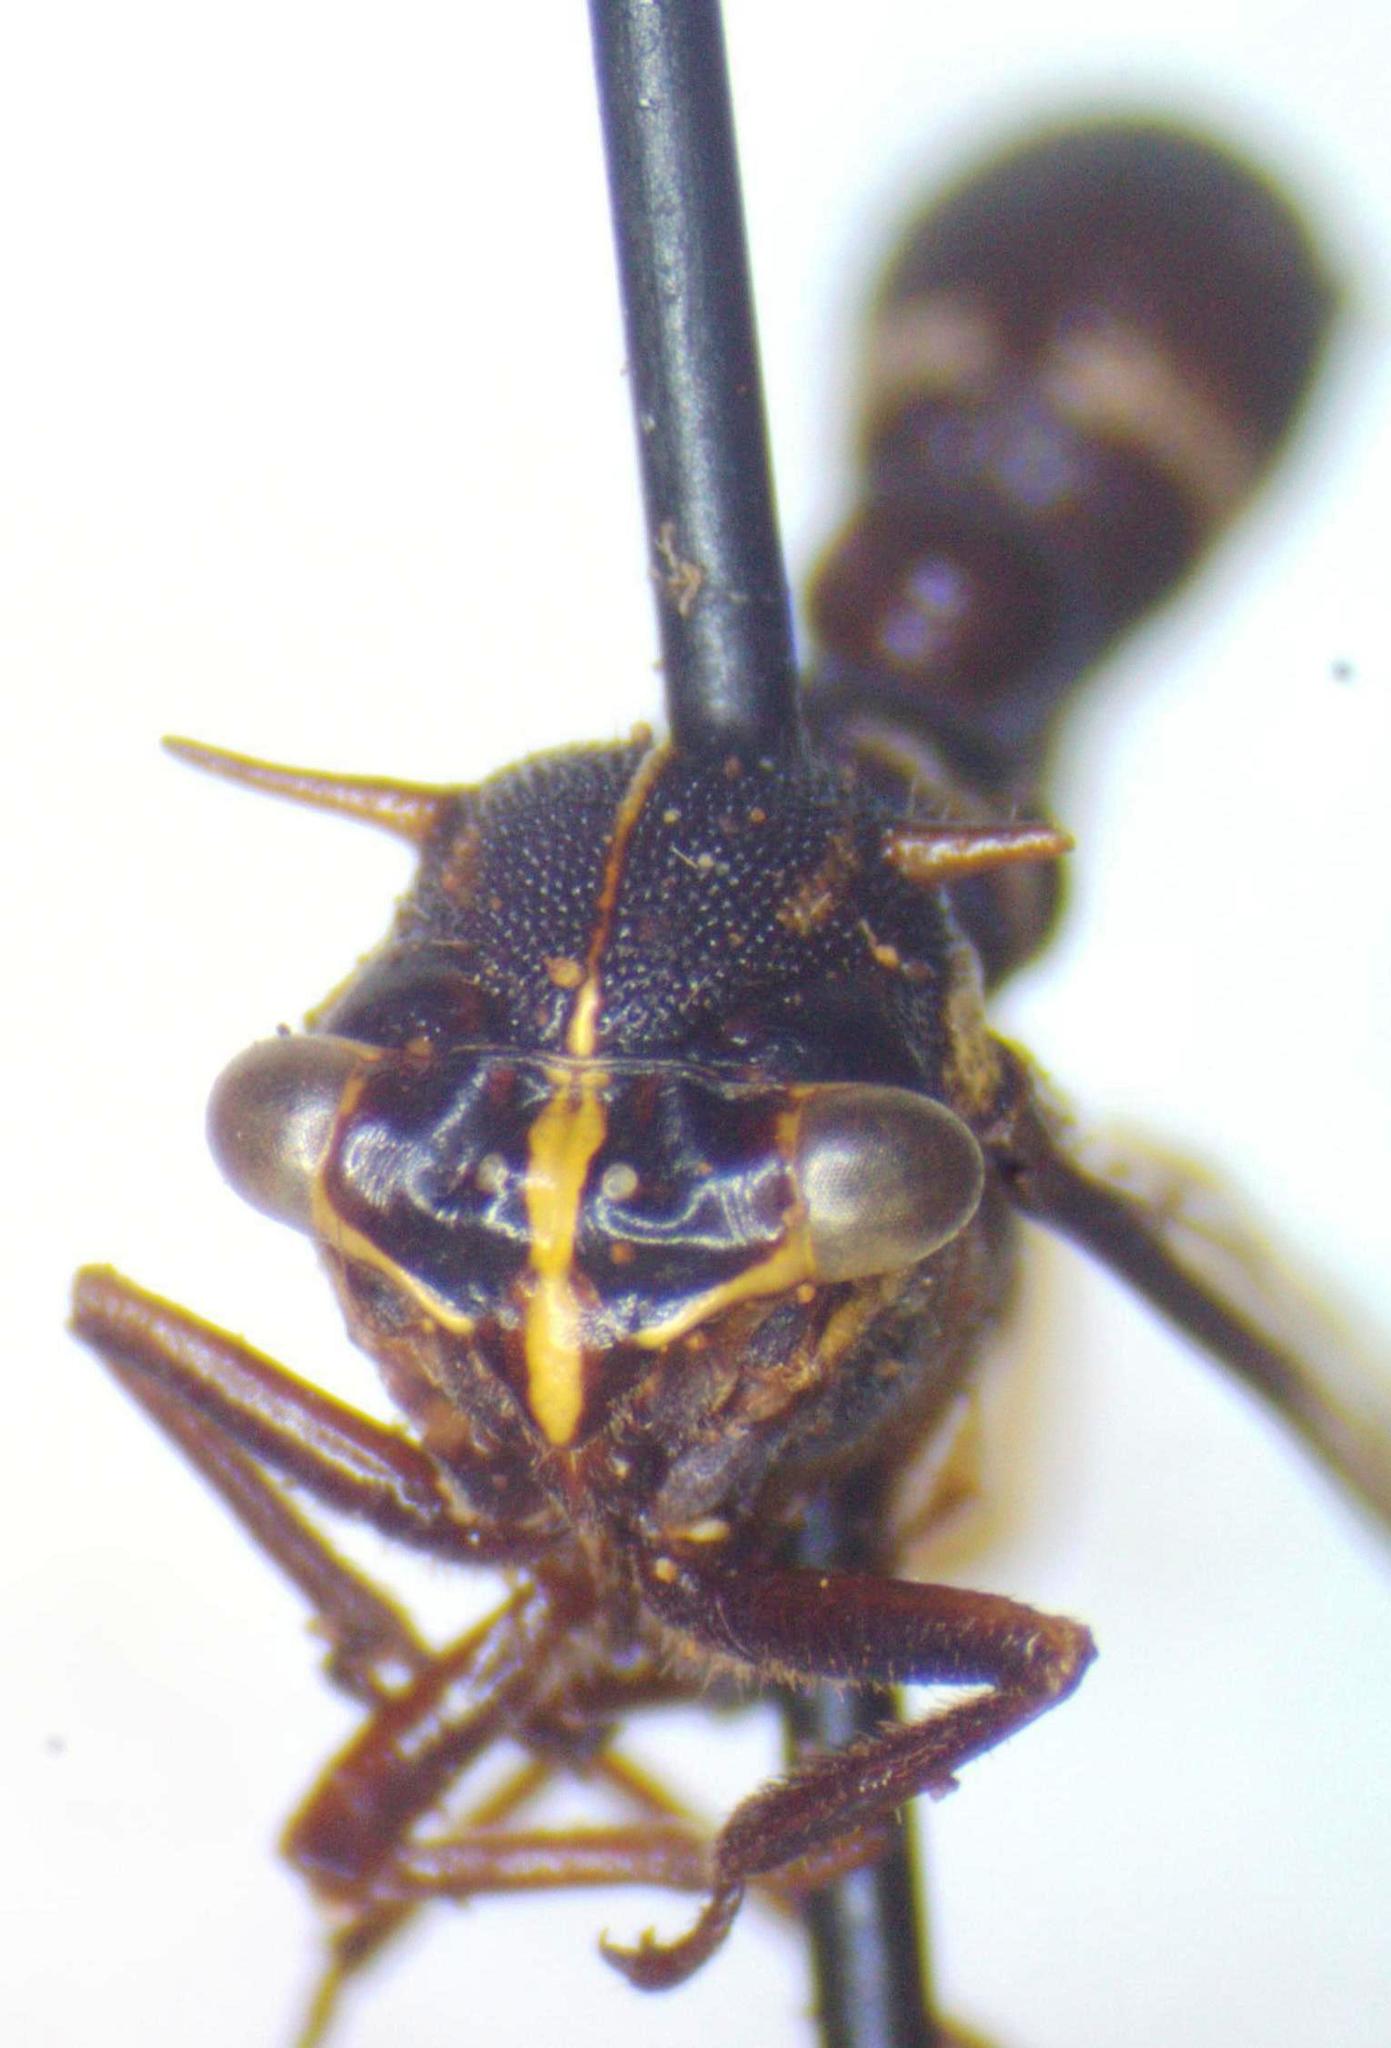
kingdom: Animalia
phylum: Arthropoda
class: Insecta
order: Hemiptera
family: Membracidae
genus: Heteronotus
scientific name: Heteronotus trinodosus
